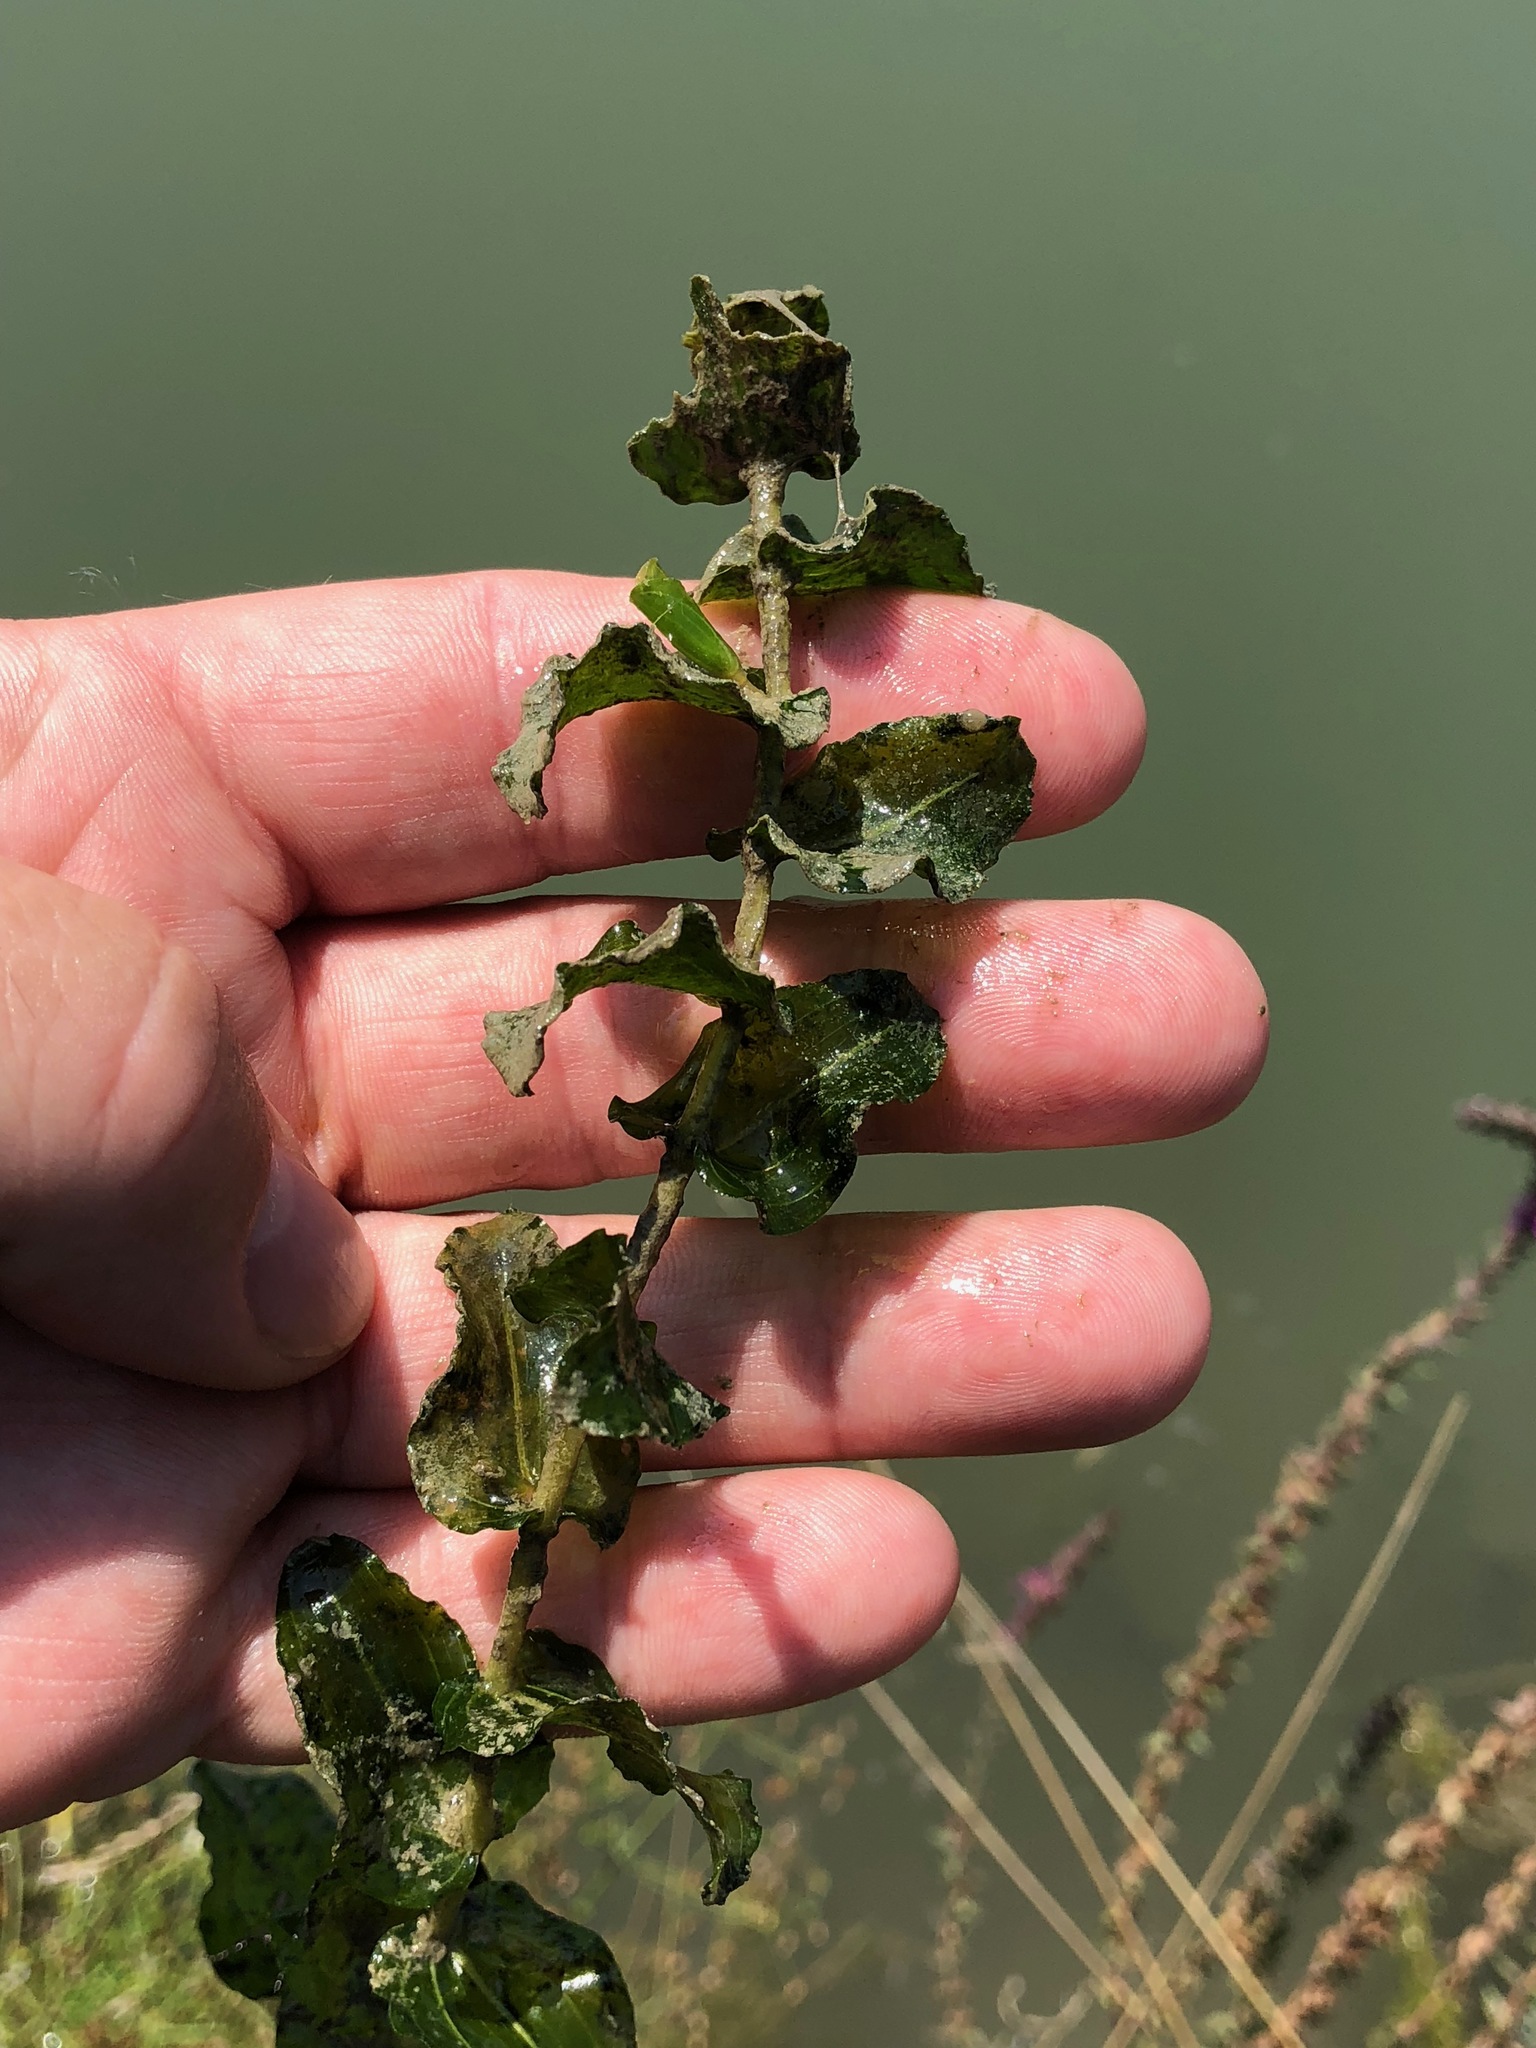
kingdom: Plantae
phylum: Tracheophyta
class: Liliopsida
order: Alismatales
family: Potamogetonaceae
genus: Potamogeton
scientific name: Potamogeton perfoliatus
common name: Perfoliate pondweed
